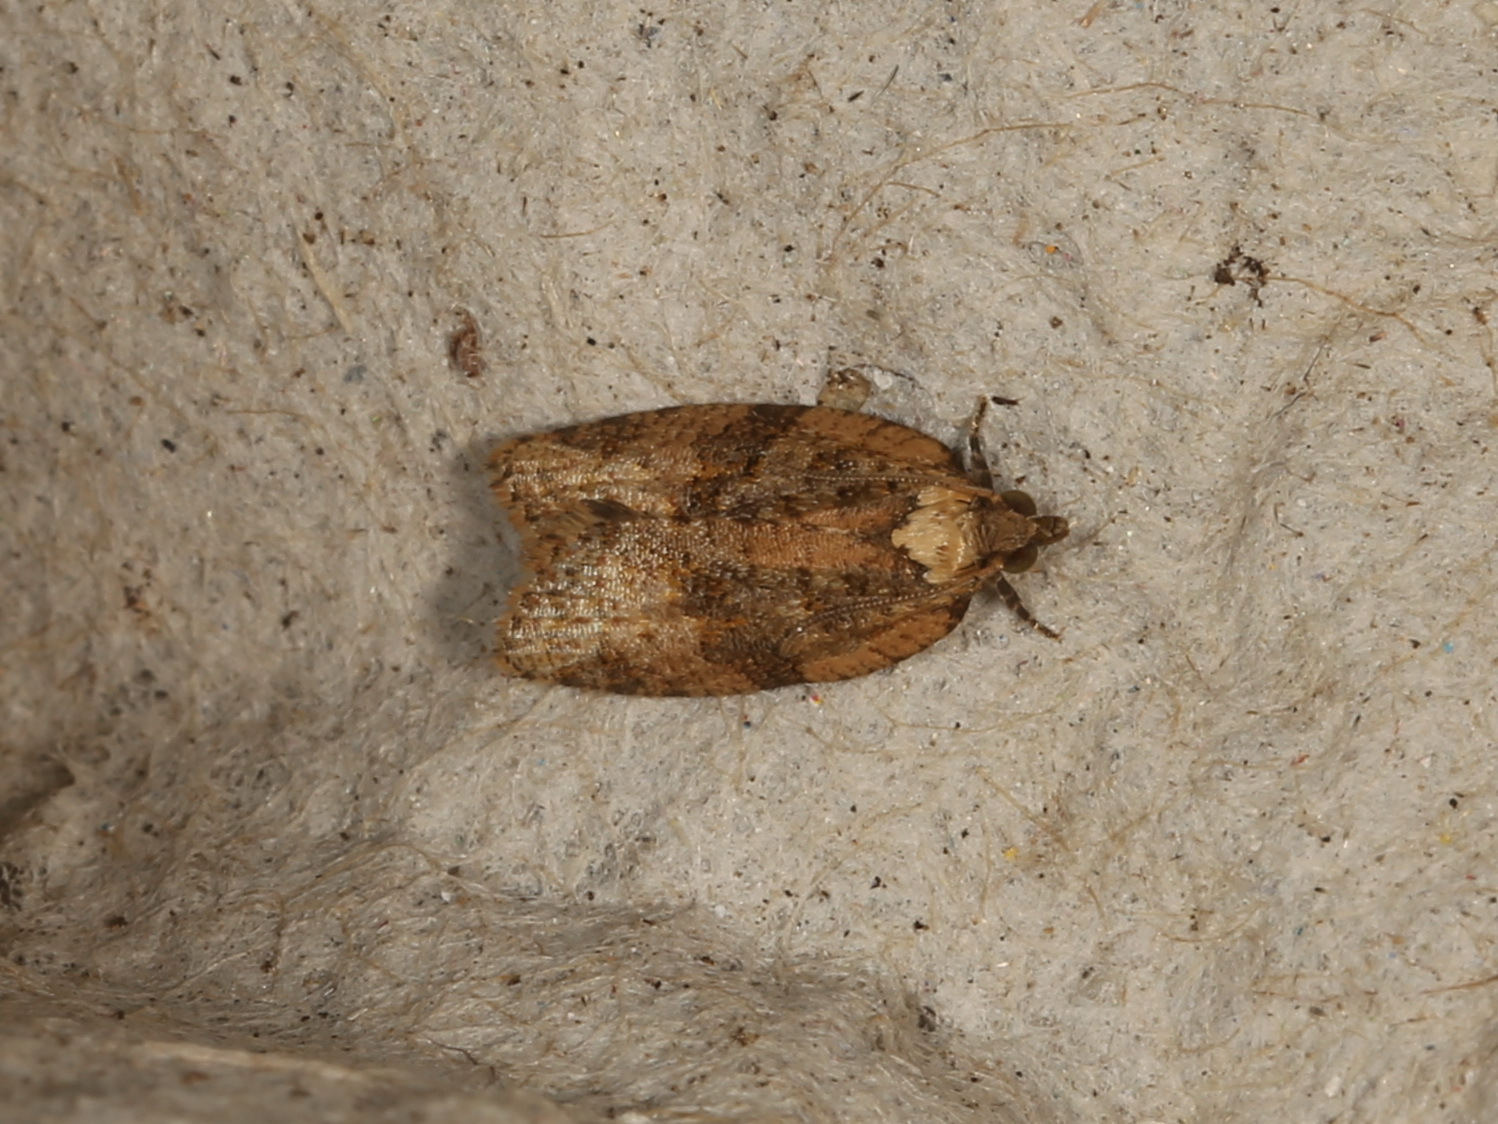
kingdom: Animalia
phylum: Arthropoda
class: Insecta
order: Lepidoptera
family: Tortricidae
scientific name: Tortricidae
